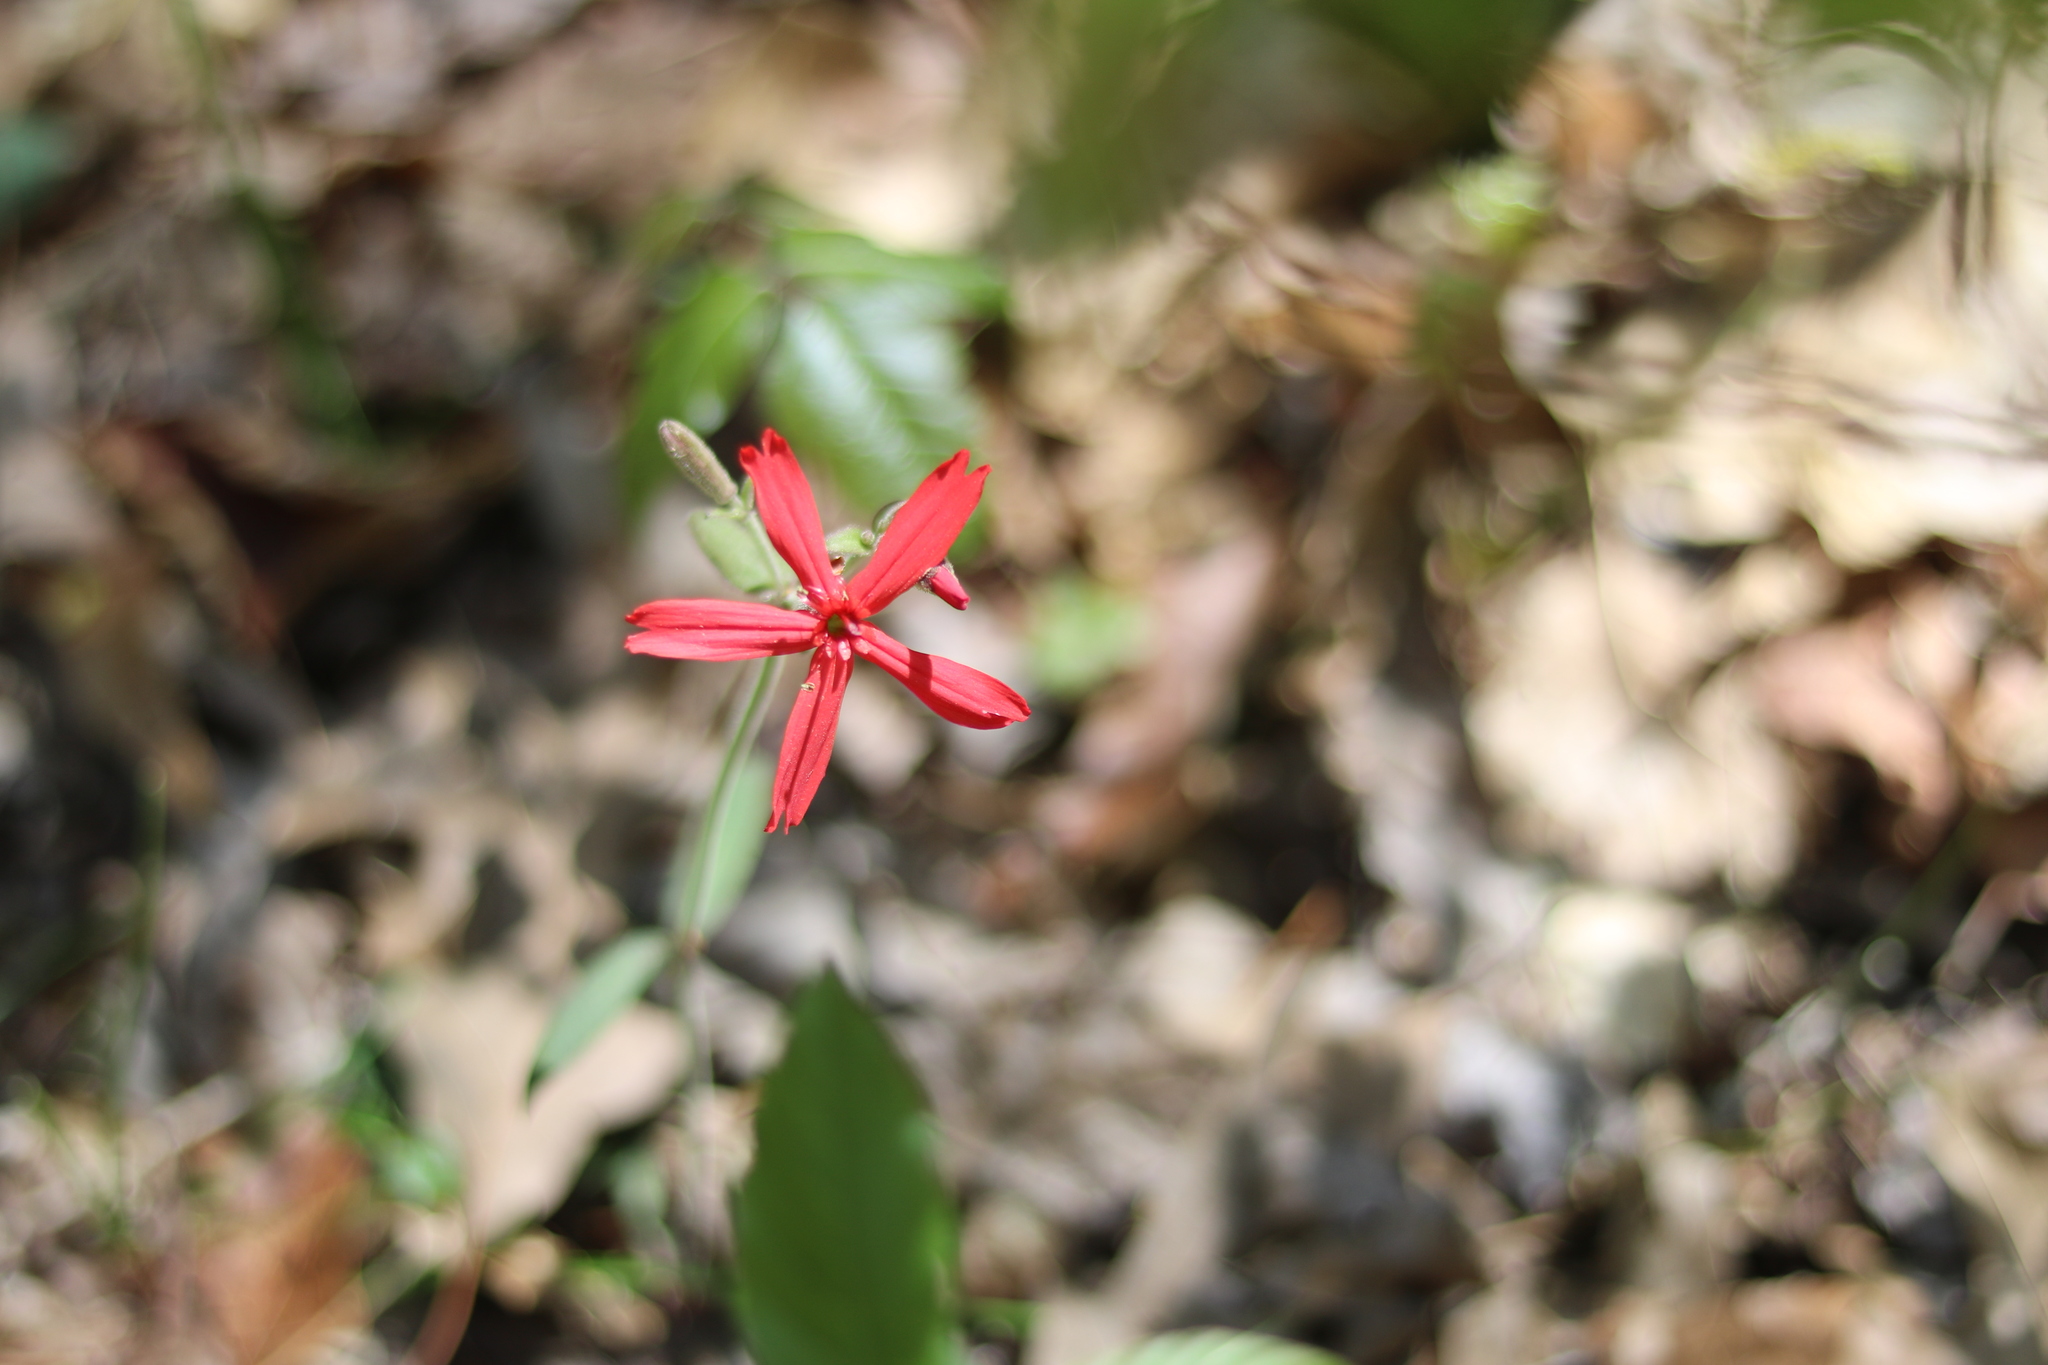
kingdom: Plantae
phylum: Tracheophyta
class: Magnoliopsida
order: Caryophyllales
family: Caryophyllaceae
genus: Silene
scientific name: Silene virginica
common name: Fire-pink
